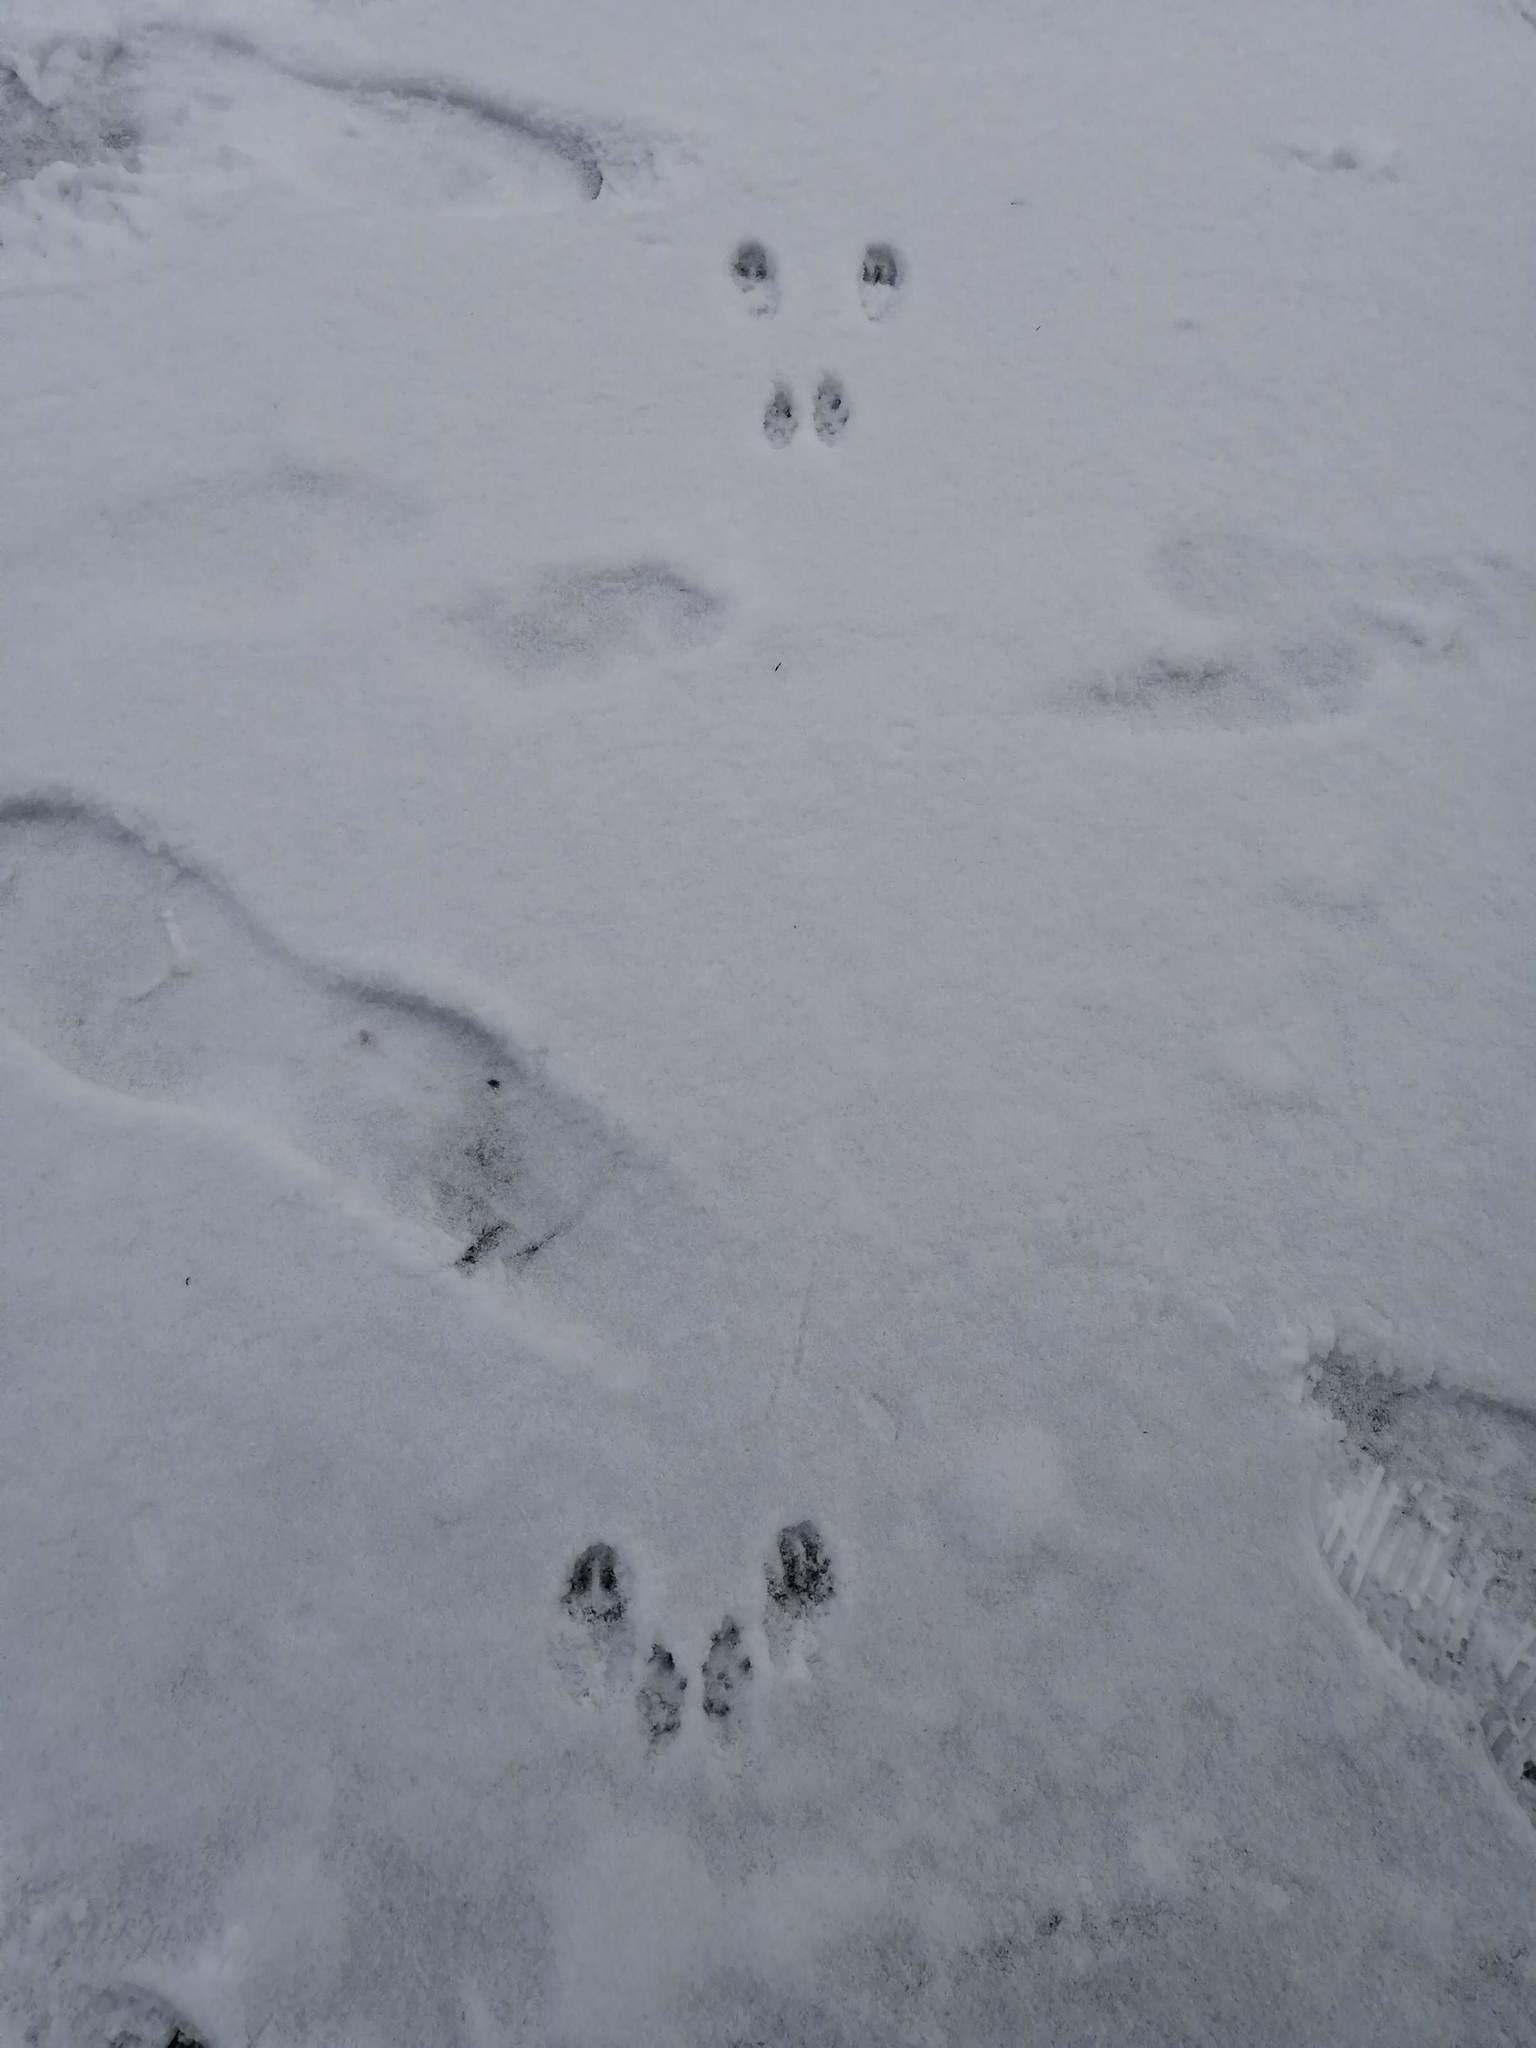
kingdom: Animalia
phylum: Chordata
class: Mammalia
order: Rodentia
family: Sciuridae
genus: Sciurus
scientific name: Sciurus vulgaris
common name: Eurasian red squirrel
